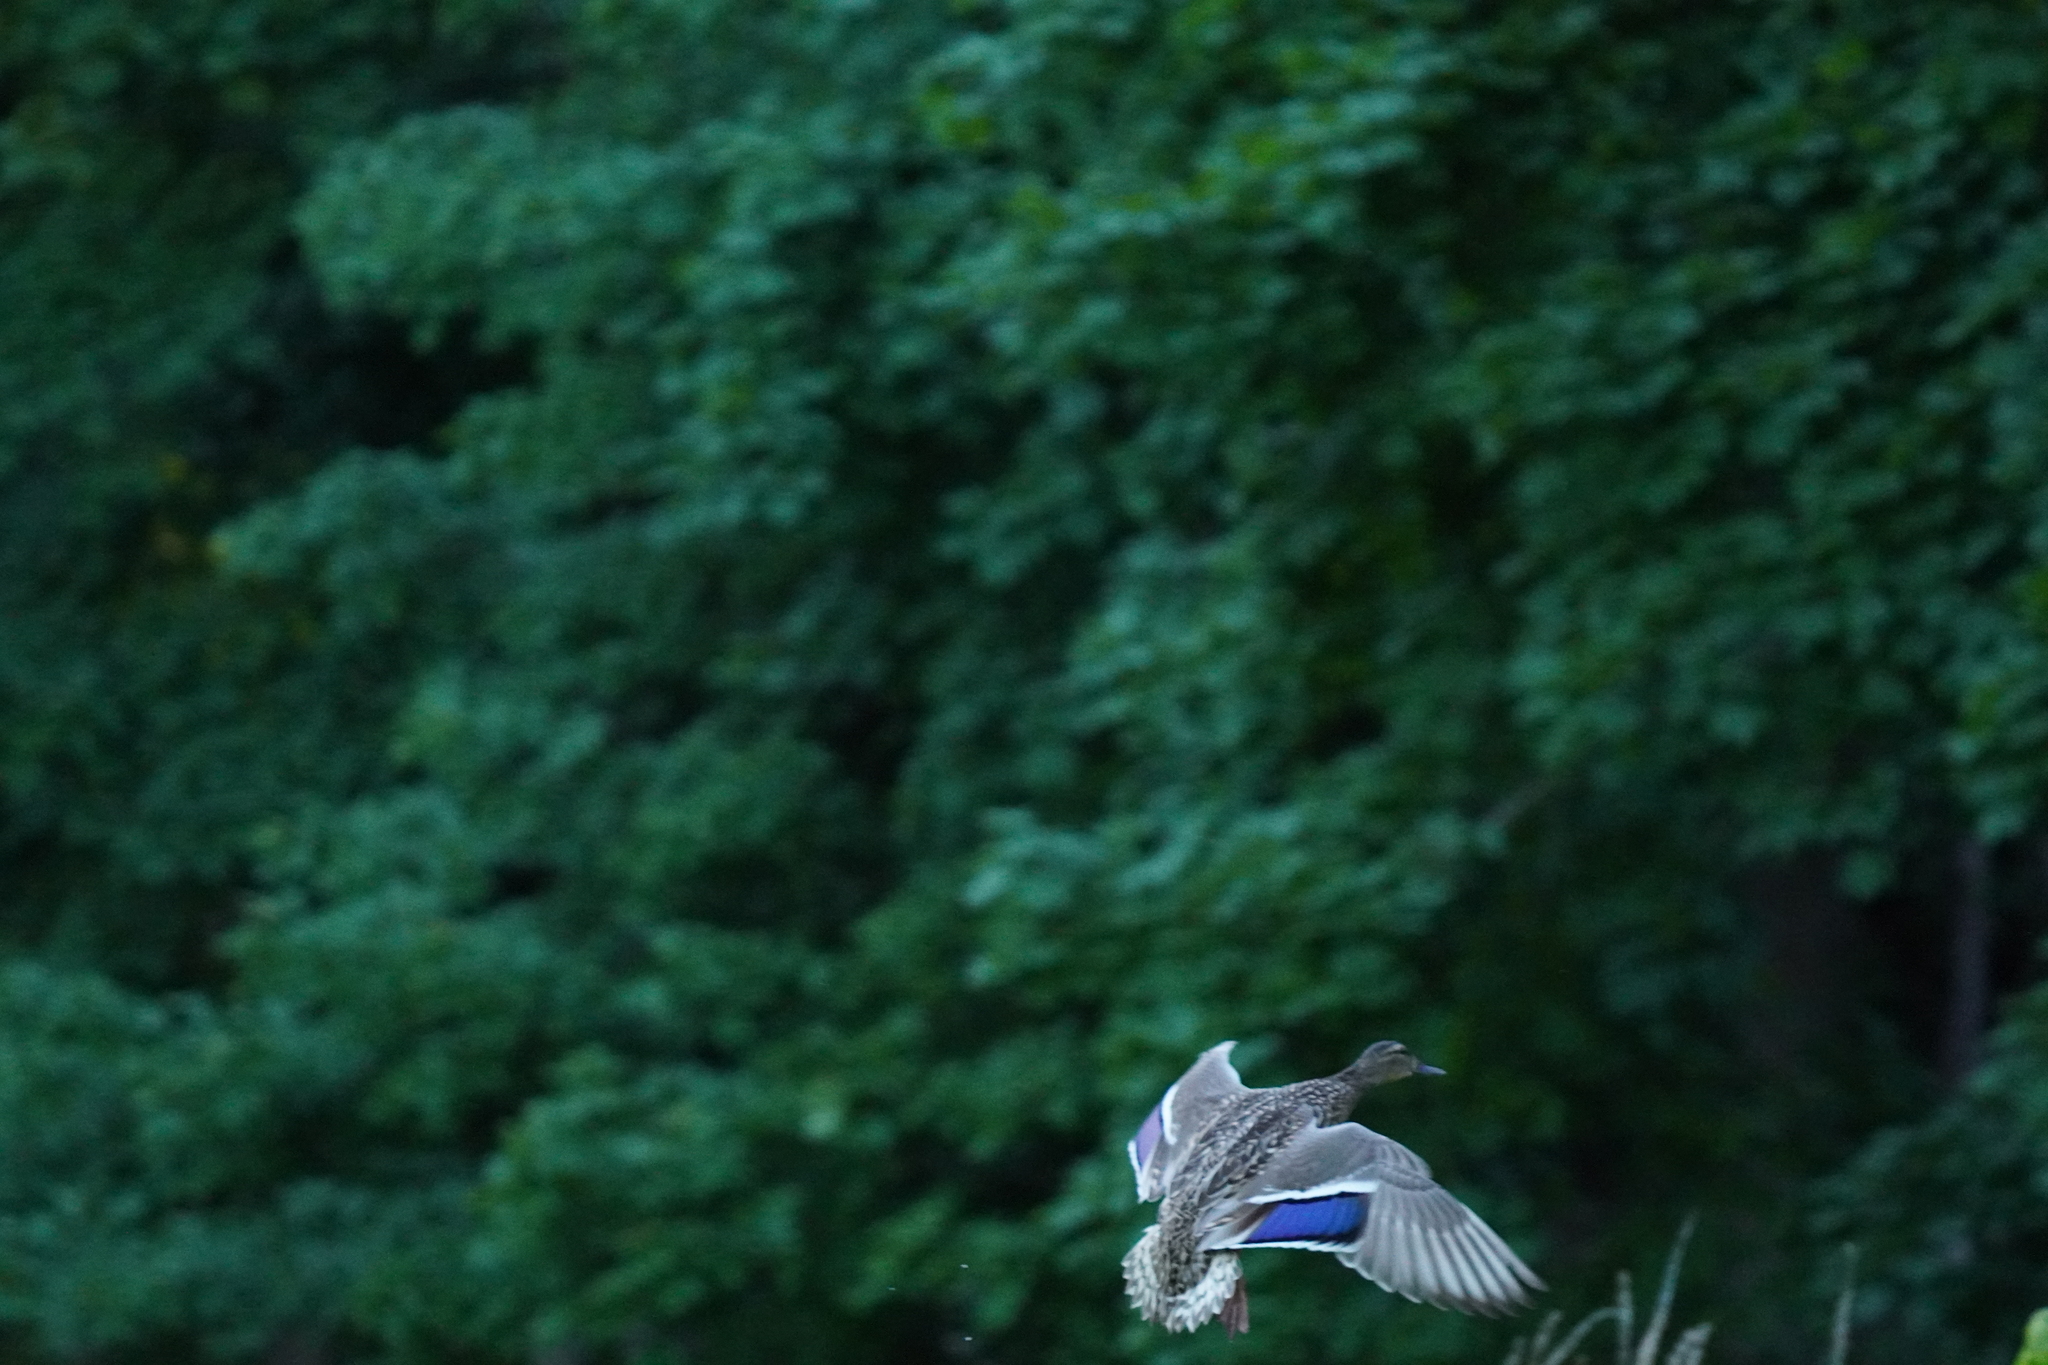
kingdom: Animalia
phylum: Chordata
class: Aves
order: Anseriformes
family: Anatidae
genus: Anas
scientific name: Anas platyrhynchos
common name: Mallard
